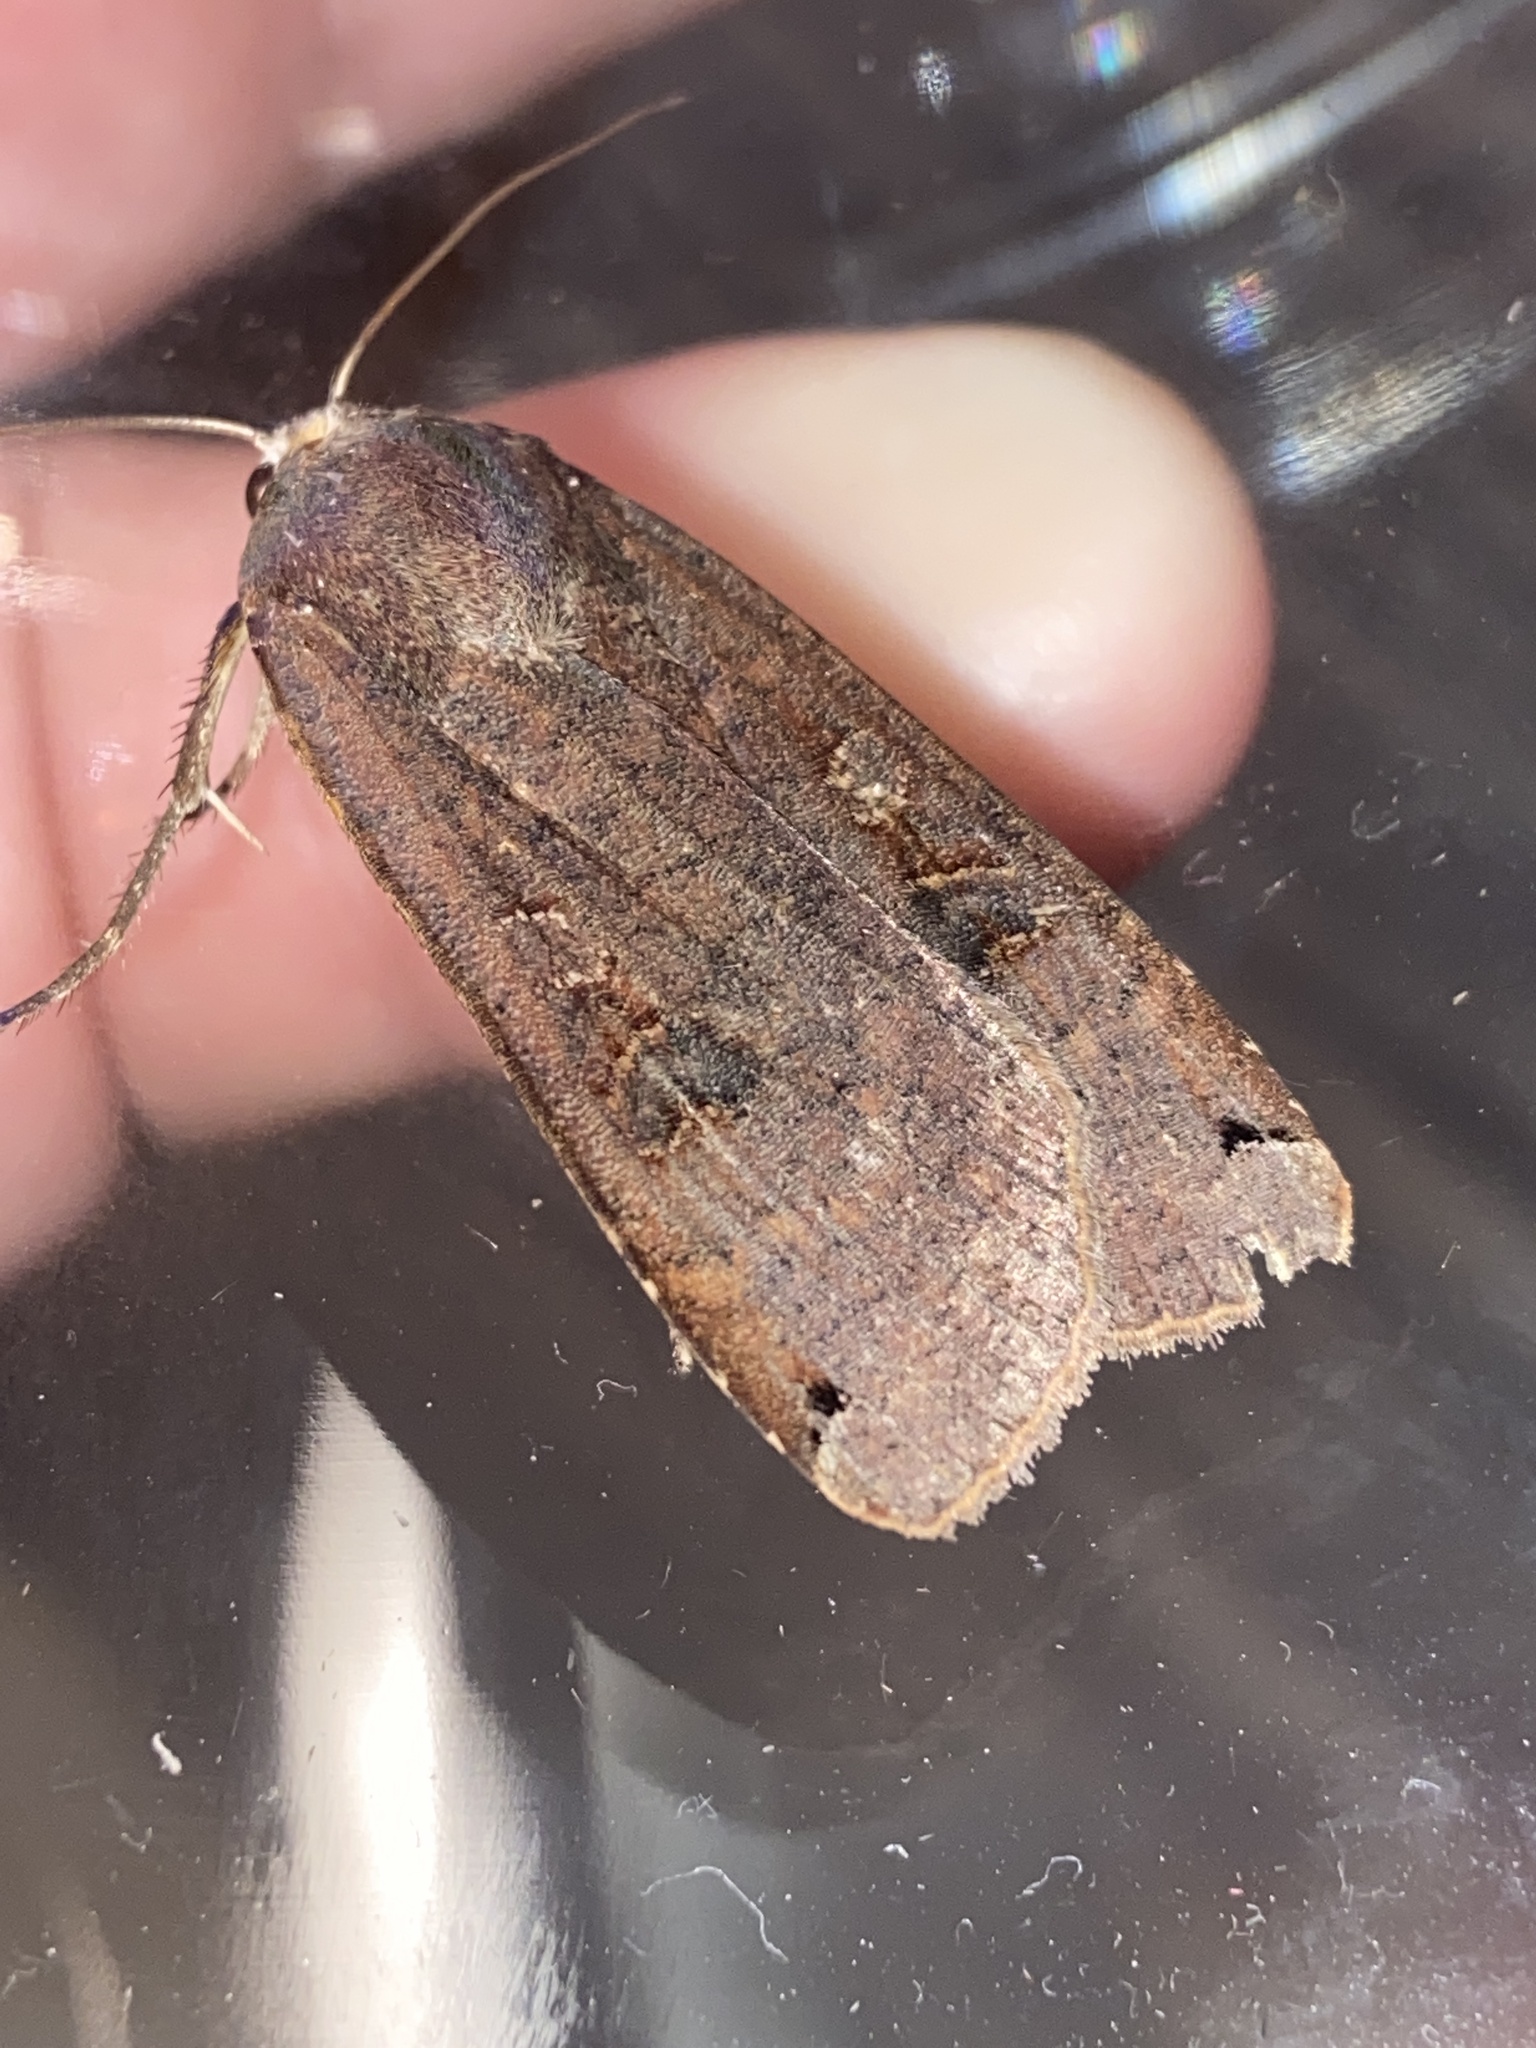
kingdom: Animalia
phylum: Arthropoda
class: Insecta
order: Lepidoptera
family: Noctuidae
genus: Noctua
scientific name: Noctua pronuba
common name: Large yellow underwing
